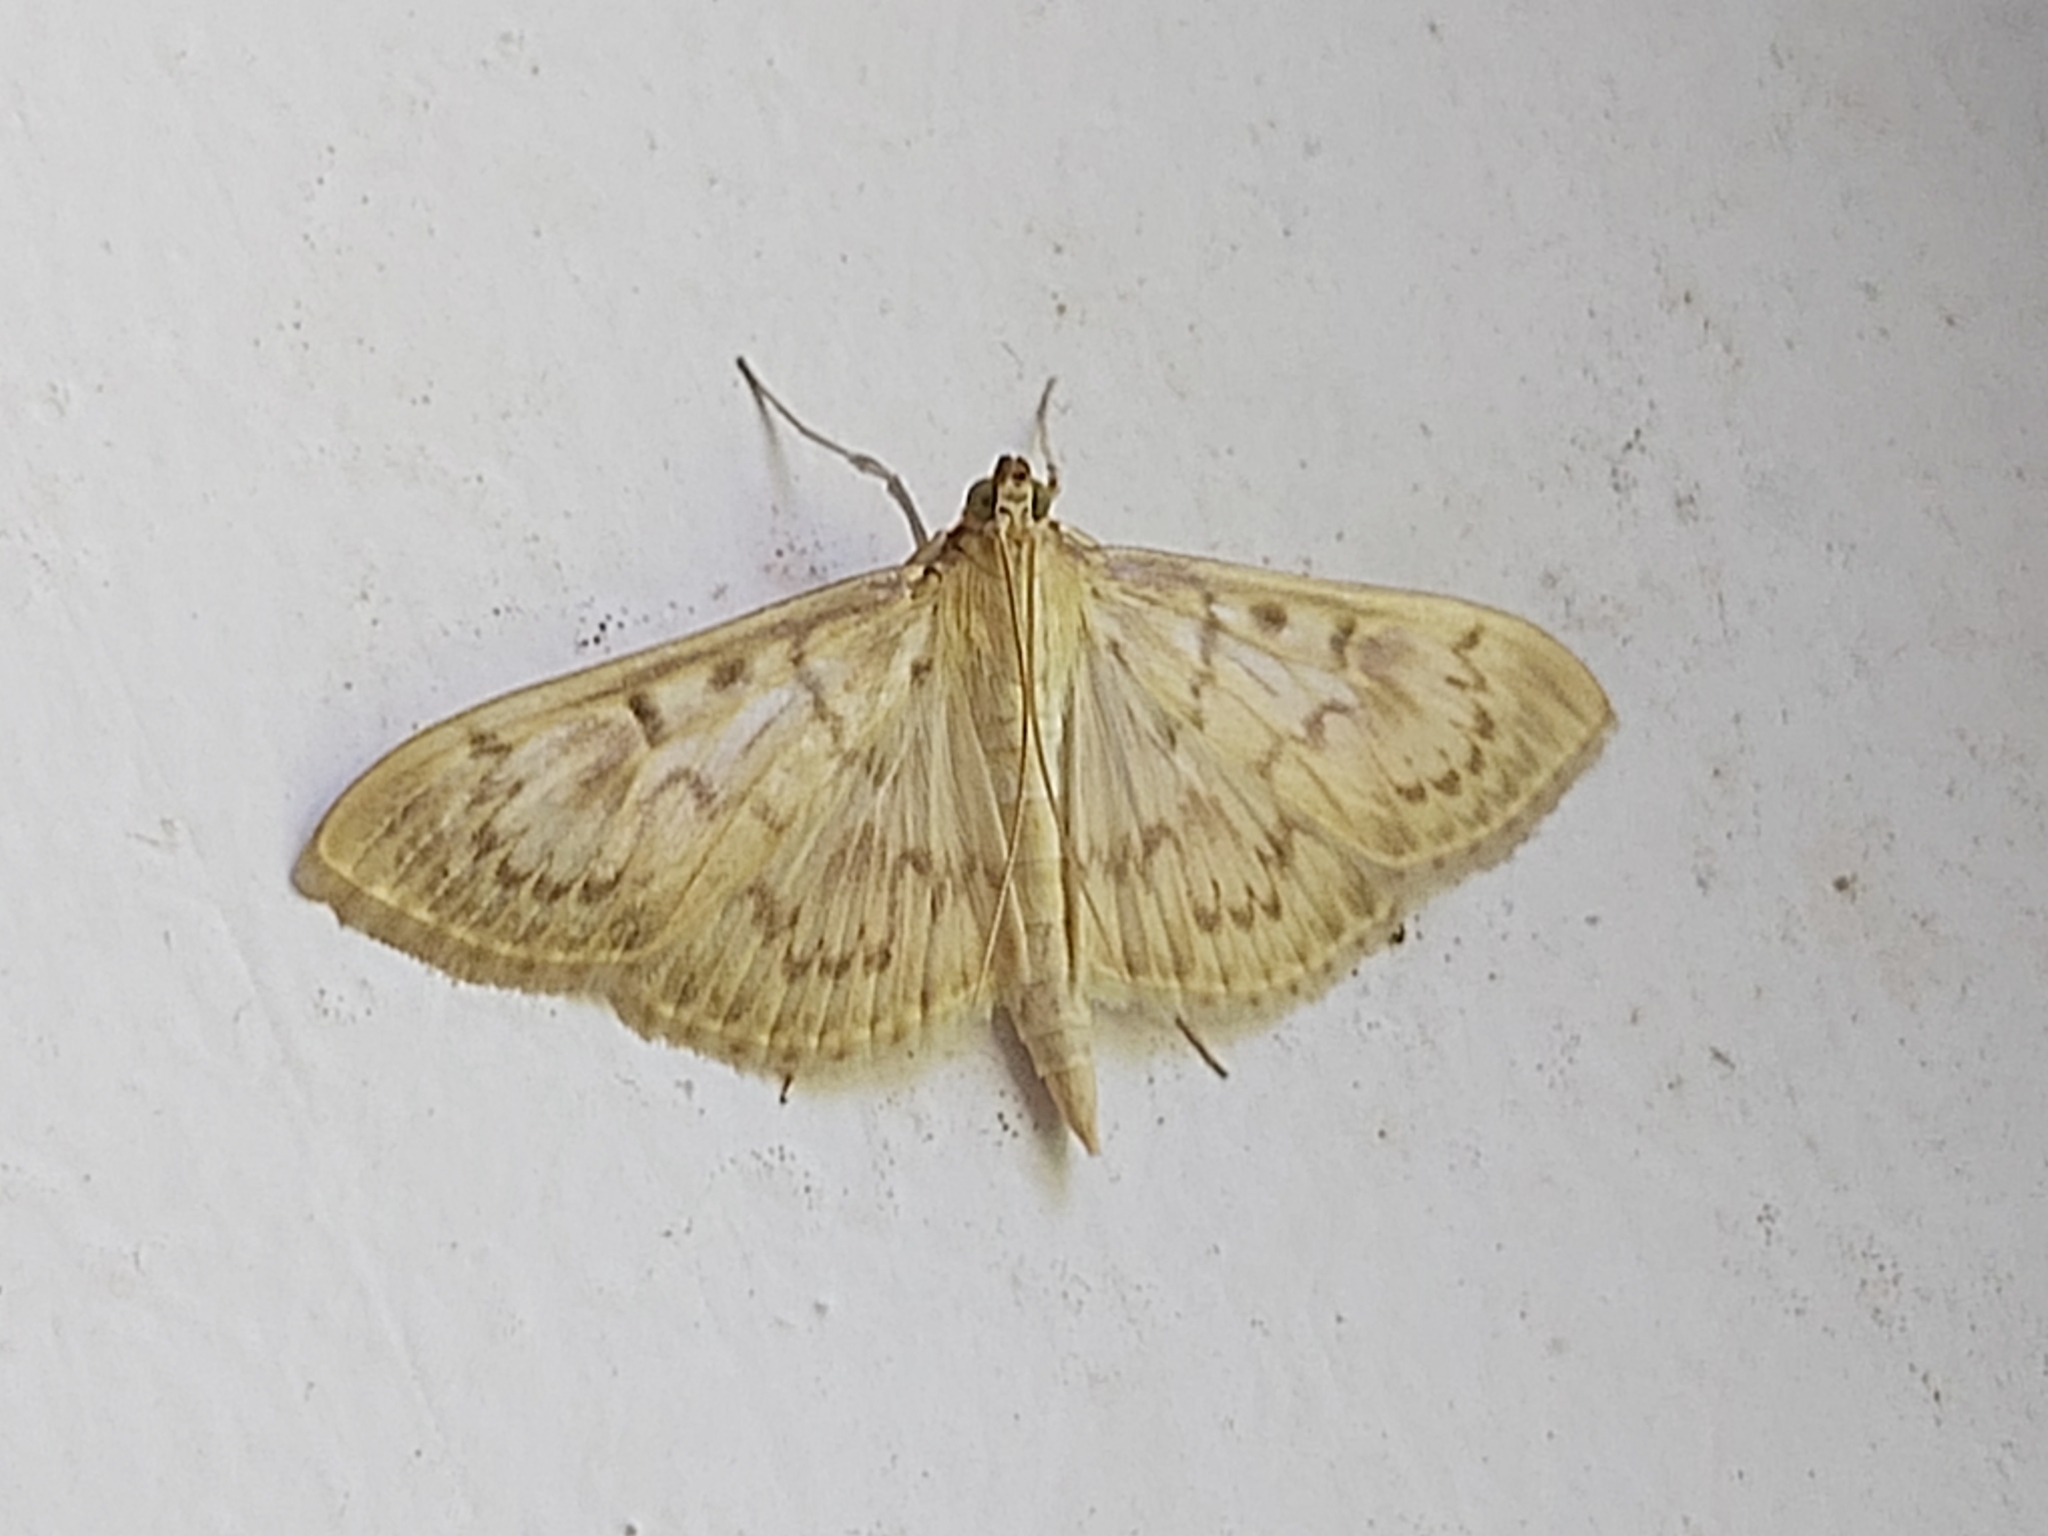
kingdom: Animalia
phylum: Arthropoda
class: Insecta
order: Lepidoptera
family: Crambidae
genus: Patania
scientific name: Patania ruralis
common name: Mother of pearl
